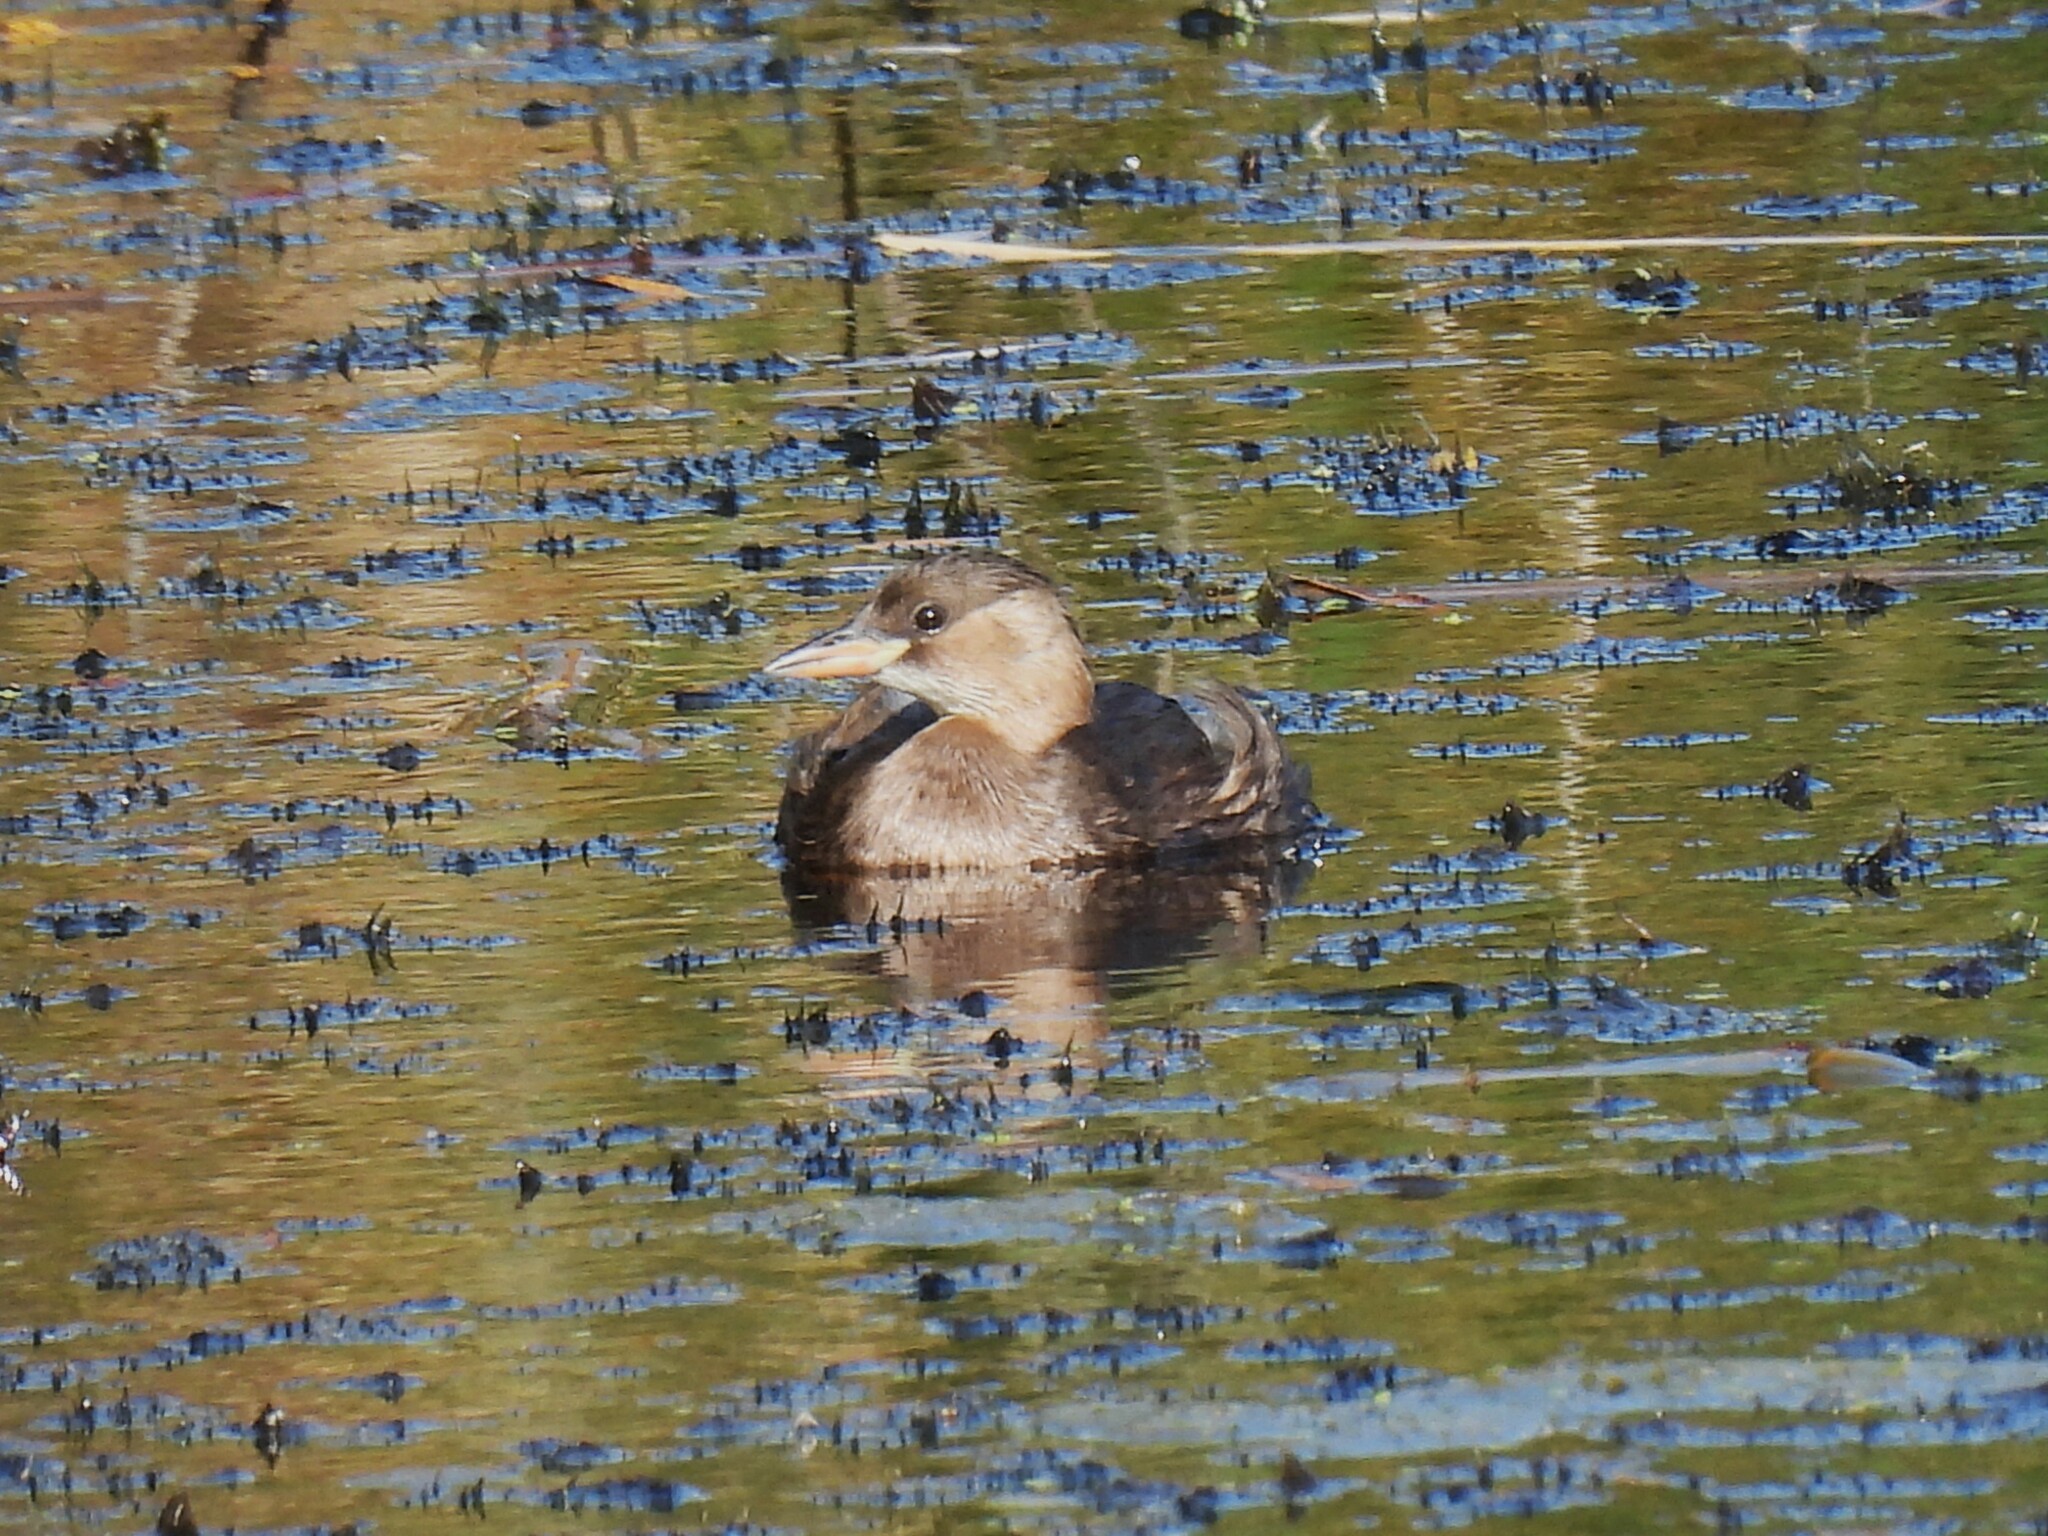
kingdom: Animalia
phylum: Chordata
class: Aves
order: Podicipediformes
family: Podicipedidae
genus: Tachybaptus
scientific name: Tachybaptus ruficollis
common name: Little grebe
